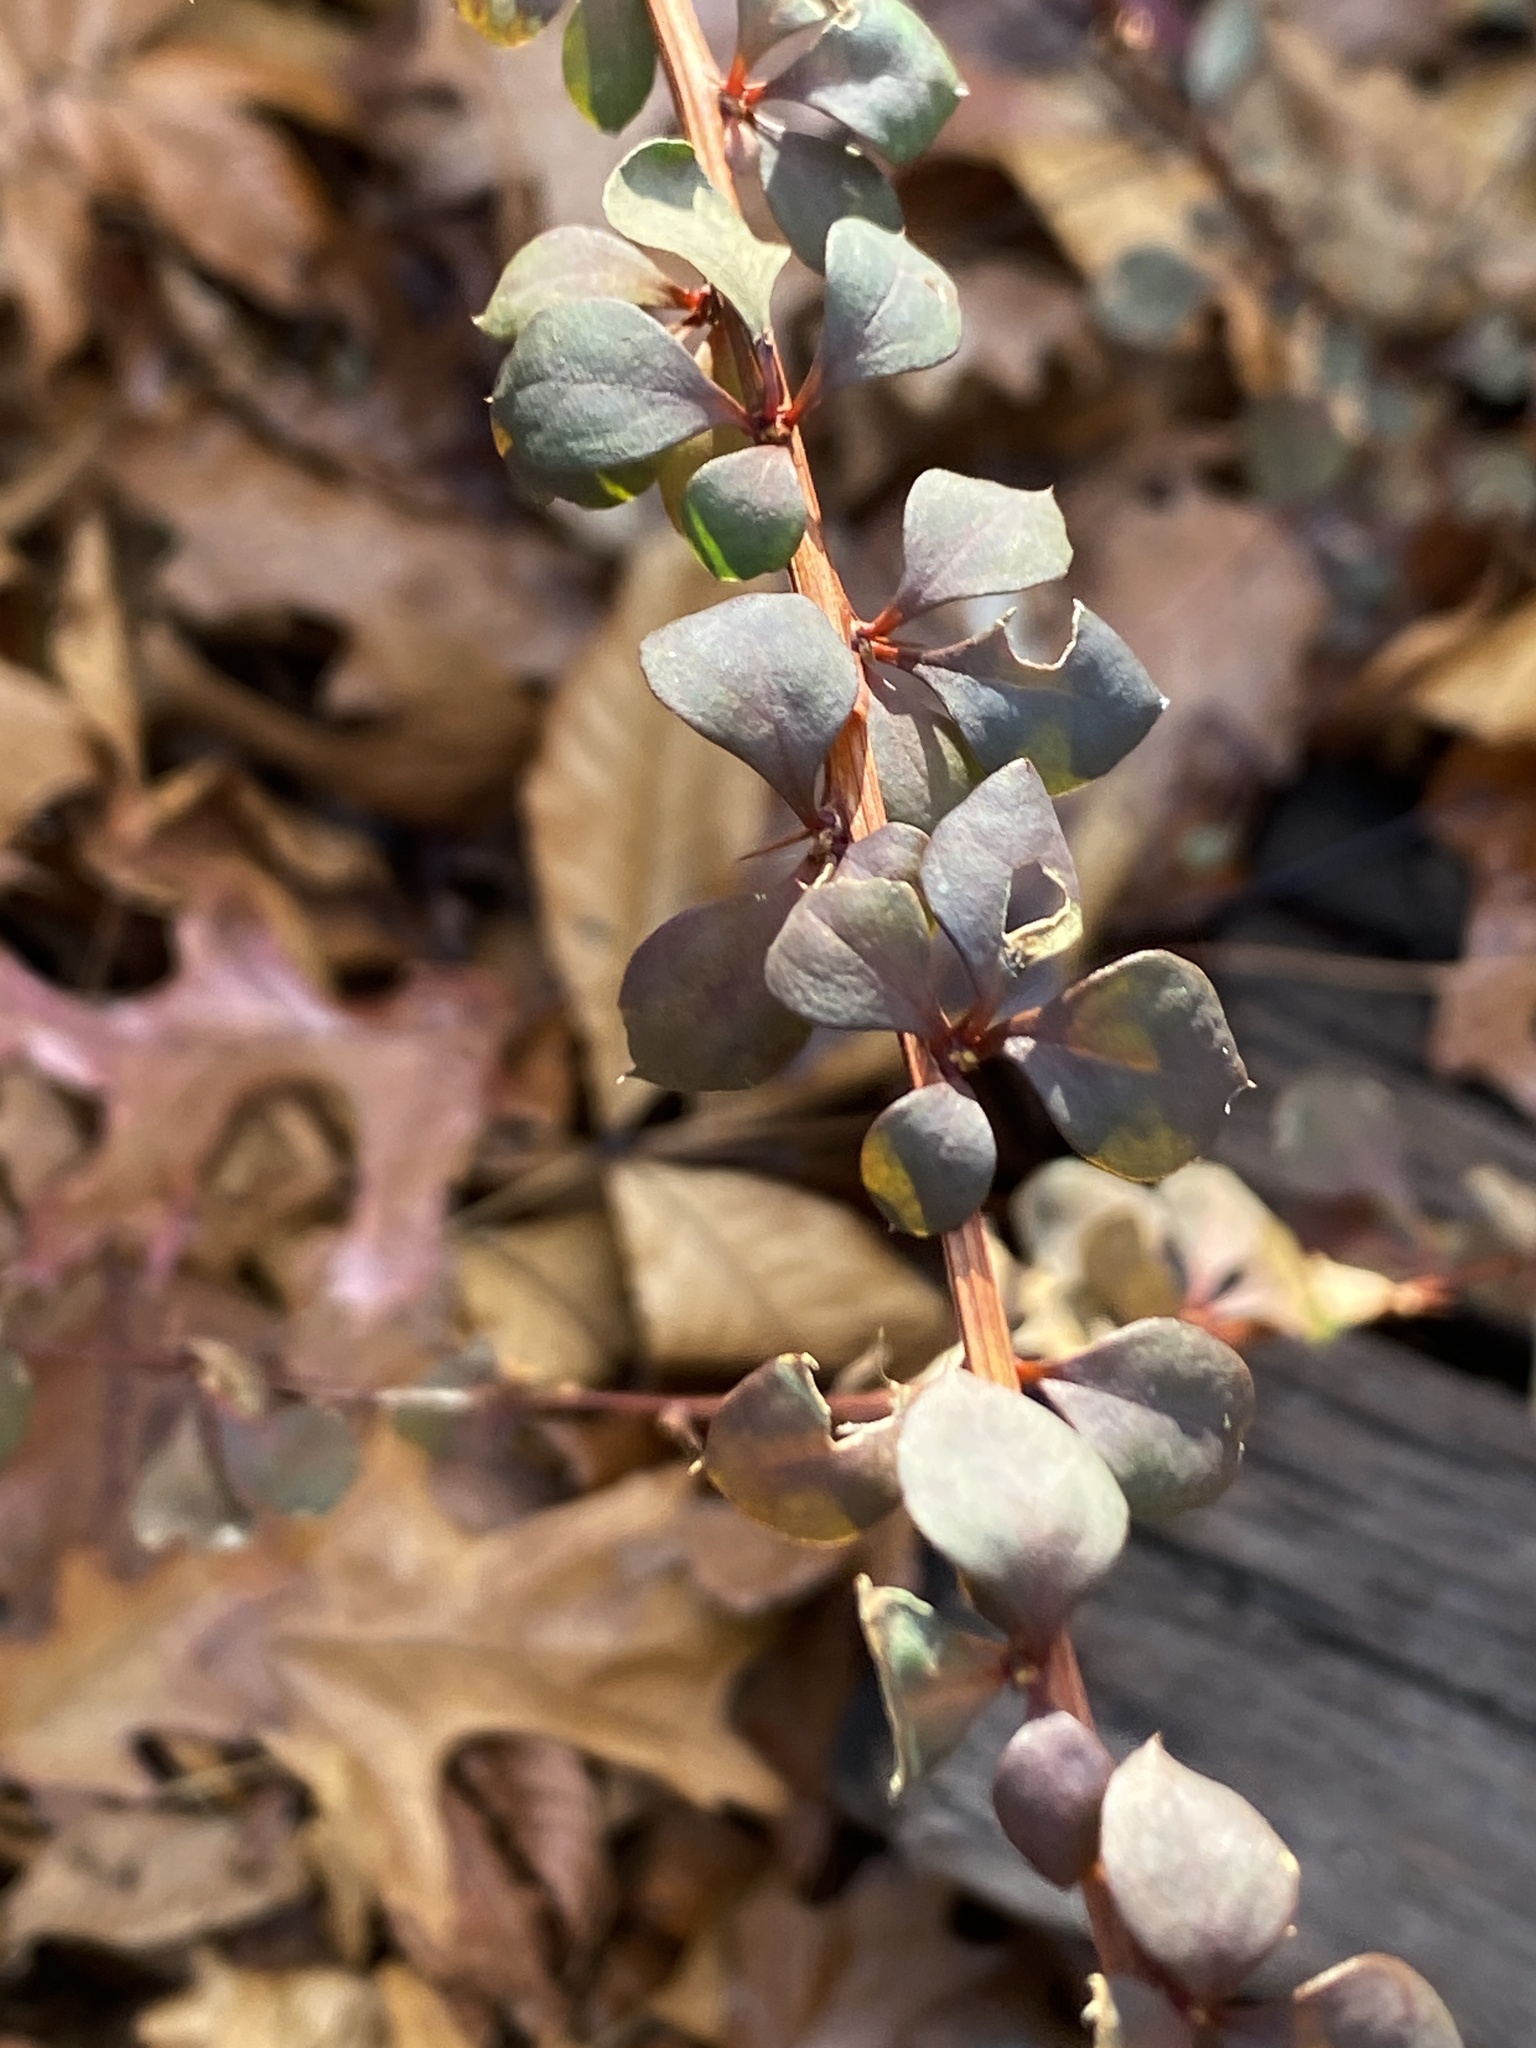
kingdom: Plantae
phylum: Tracheophyta
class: Magnoliopsida
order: Ranunculales
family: Berberidaceae
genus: Berberis
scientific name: Berberis thunbergii
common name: Japanese barberry
